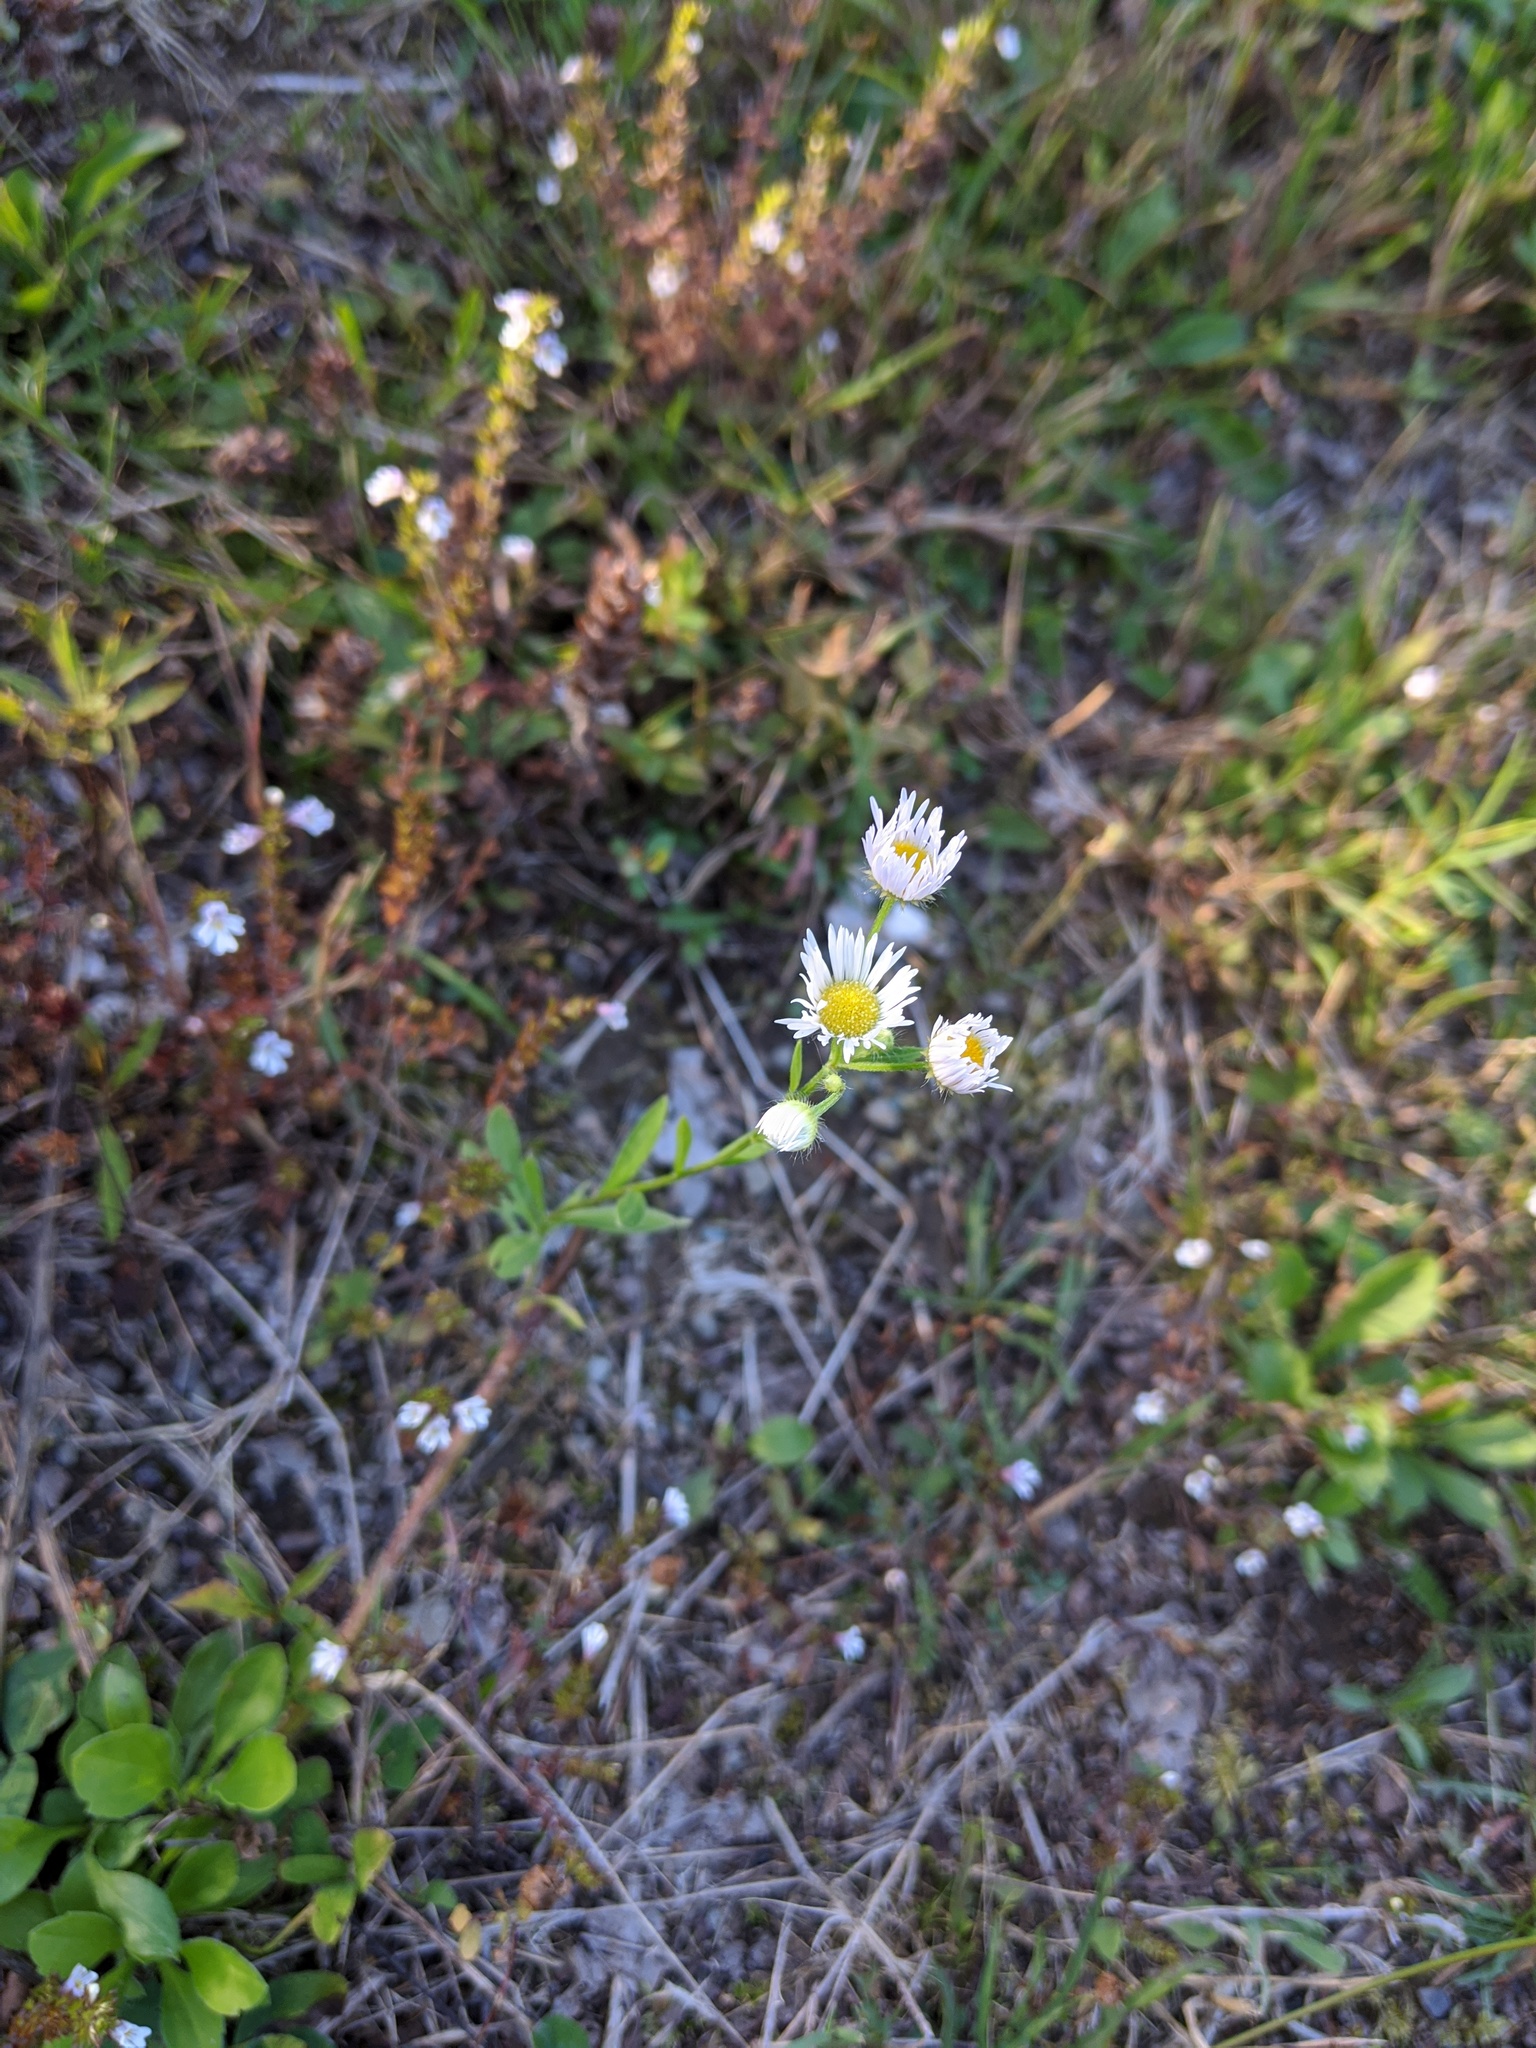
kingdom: Plantae
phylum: Tracheophyta
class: Magnoliopsida
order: Asterales
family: Asteraceae
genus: Erigeron
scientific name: Erigeron strigosus
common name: Common eastern fleabane
